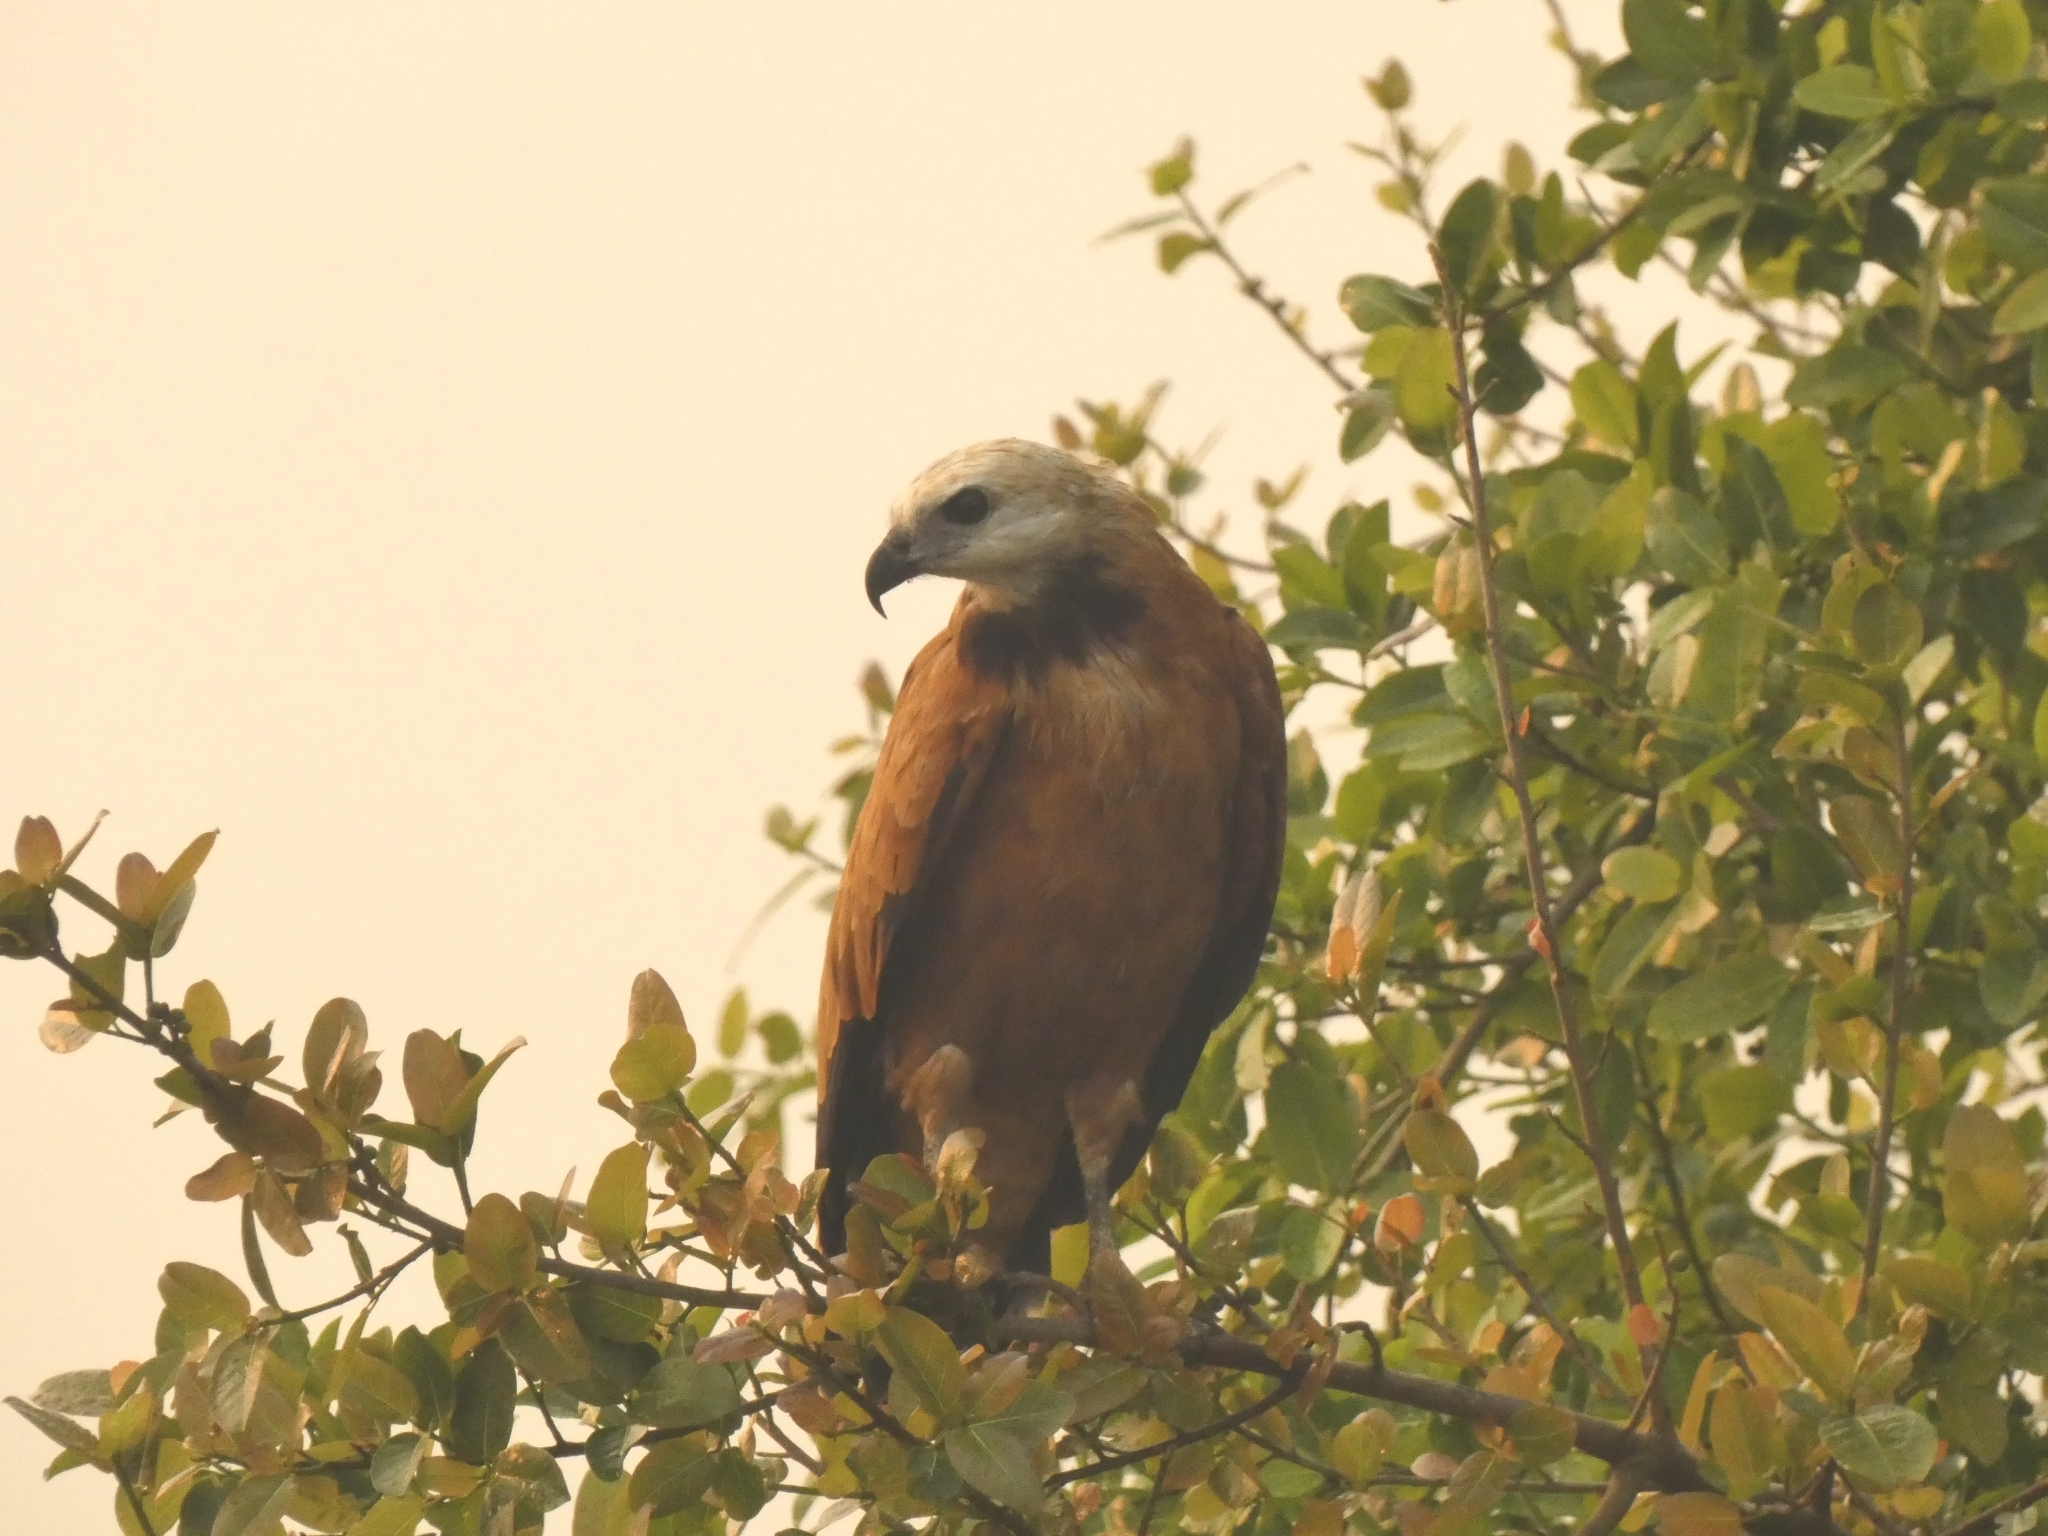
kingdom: Animalia
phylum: Chordata
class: Aves
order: Accipitriformes
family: Accipitridae
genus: Busarellus
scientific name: Busarellus nigricollis
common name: Black-collared hawk
